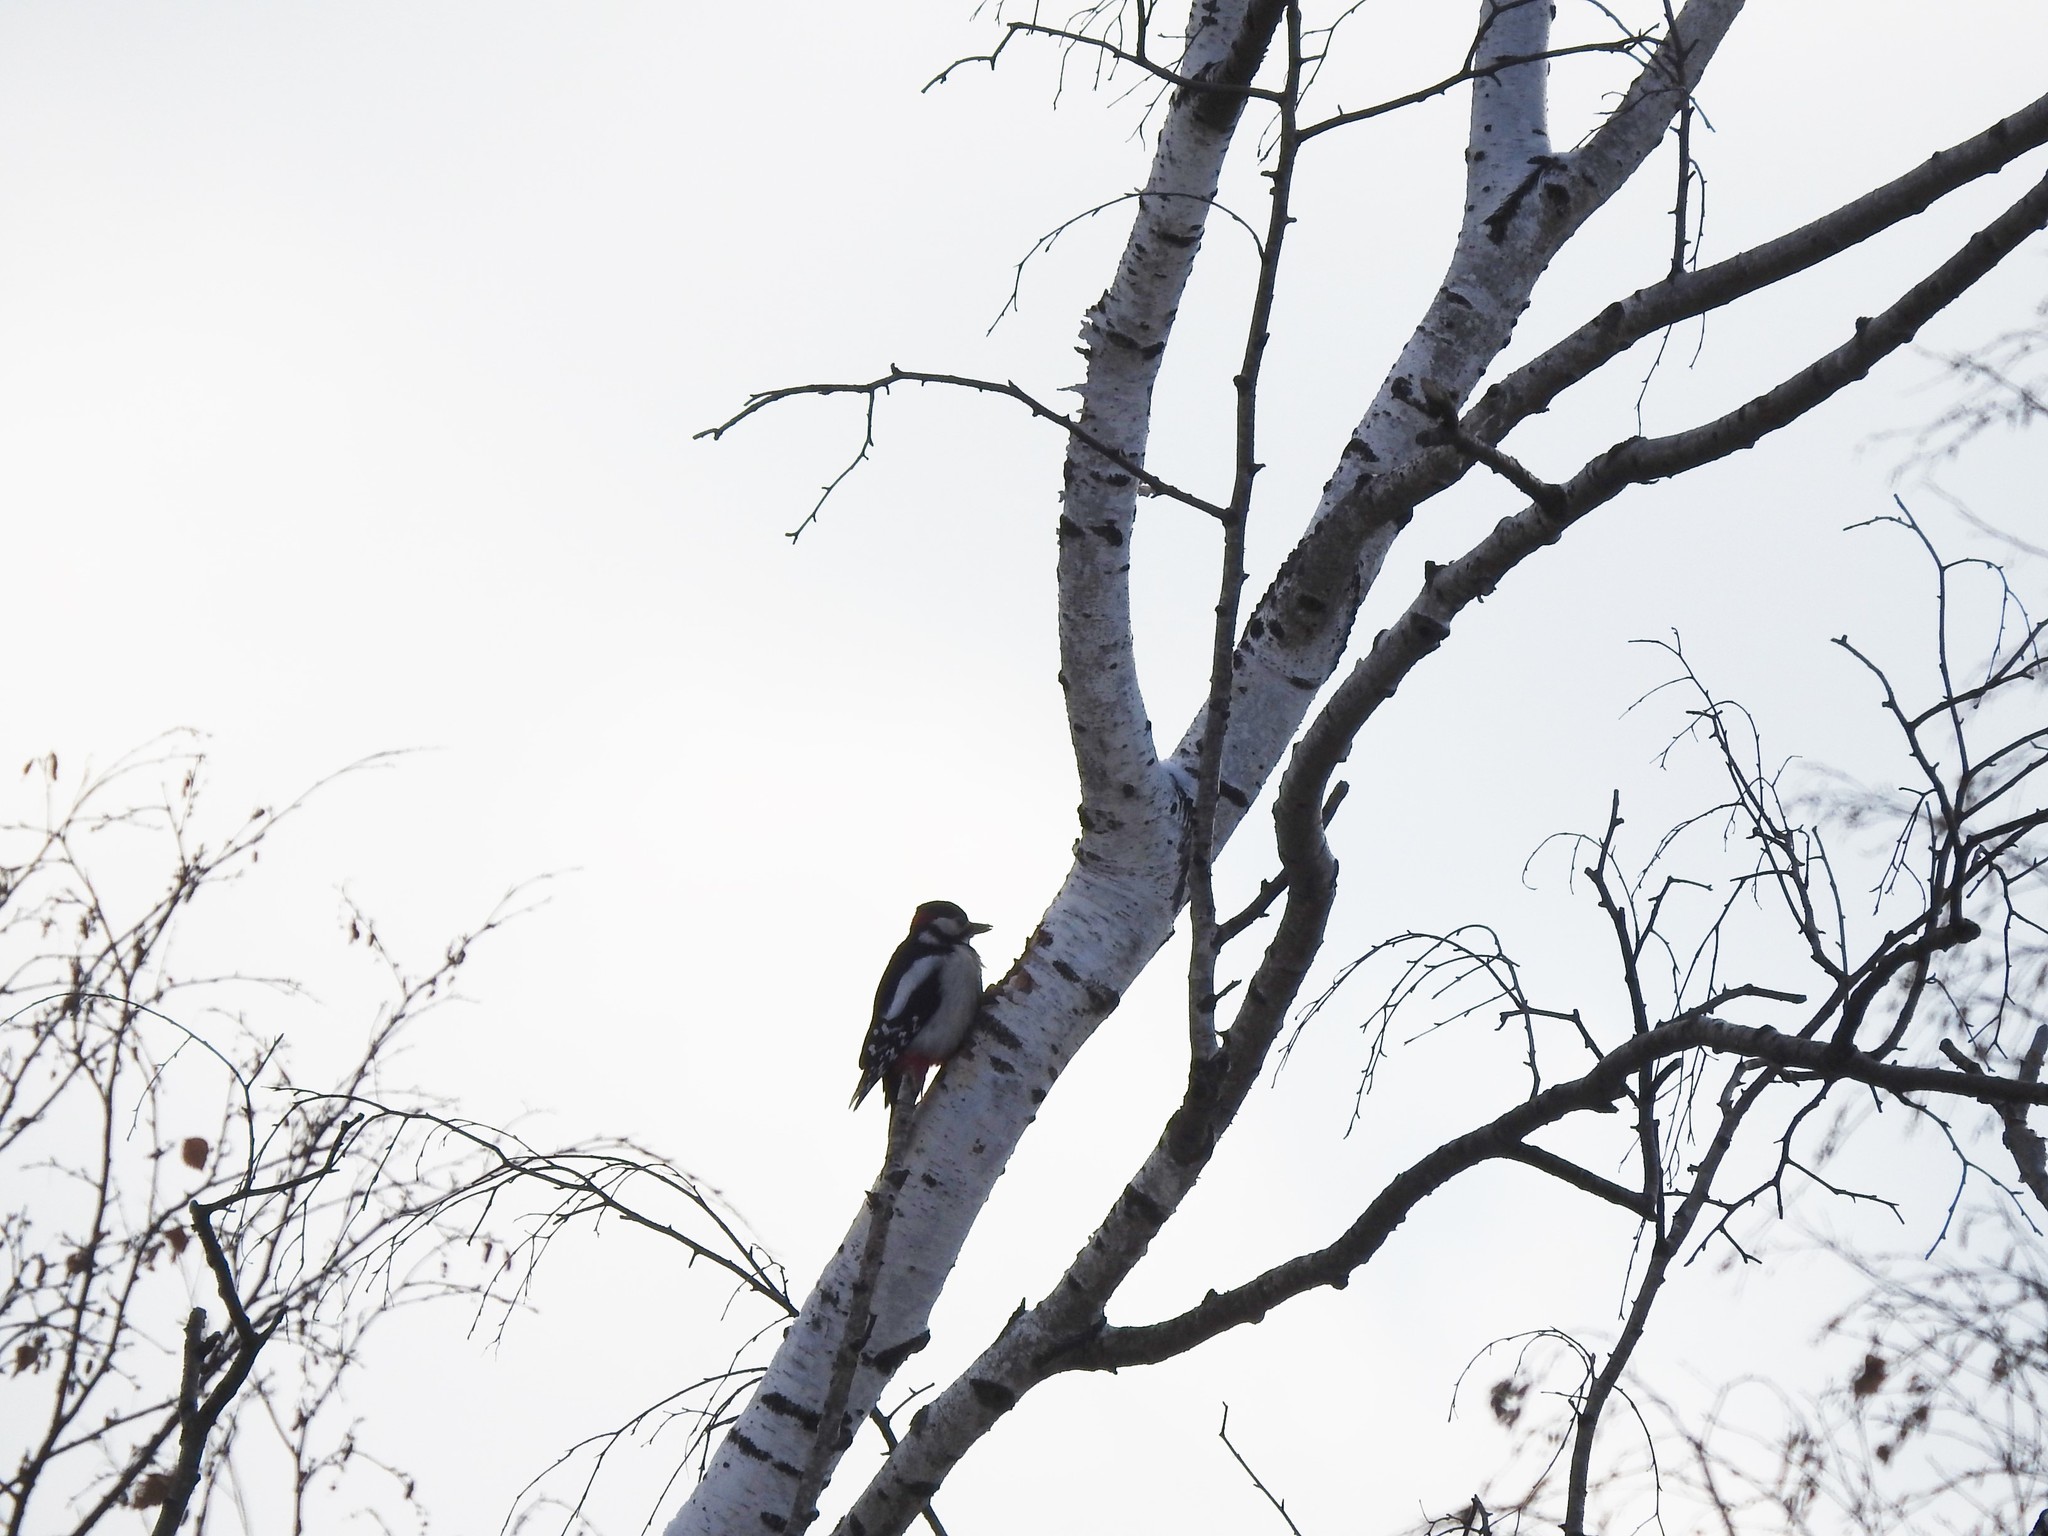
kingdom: Animalia
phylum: Chordata
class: Aves
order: Piciformes
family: Picidae
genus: Dendrocopos
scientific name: Dendrocopos major
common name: Great spotted woodpecker
